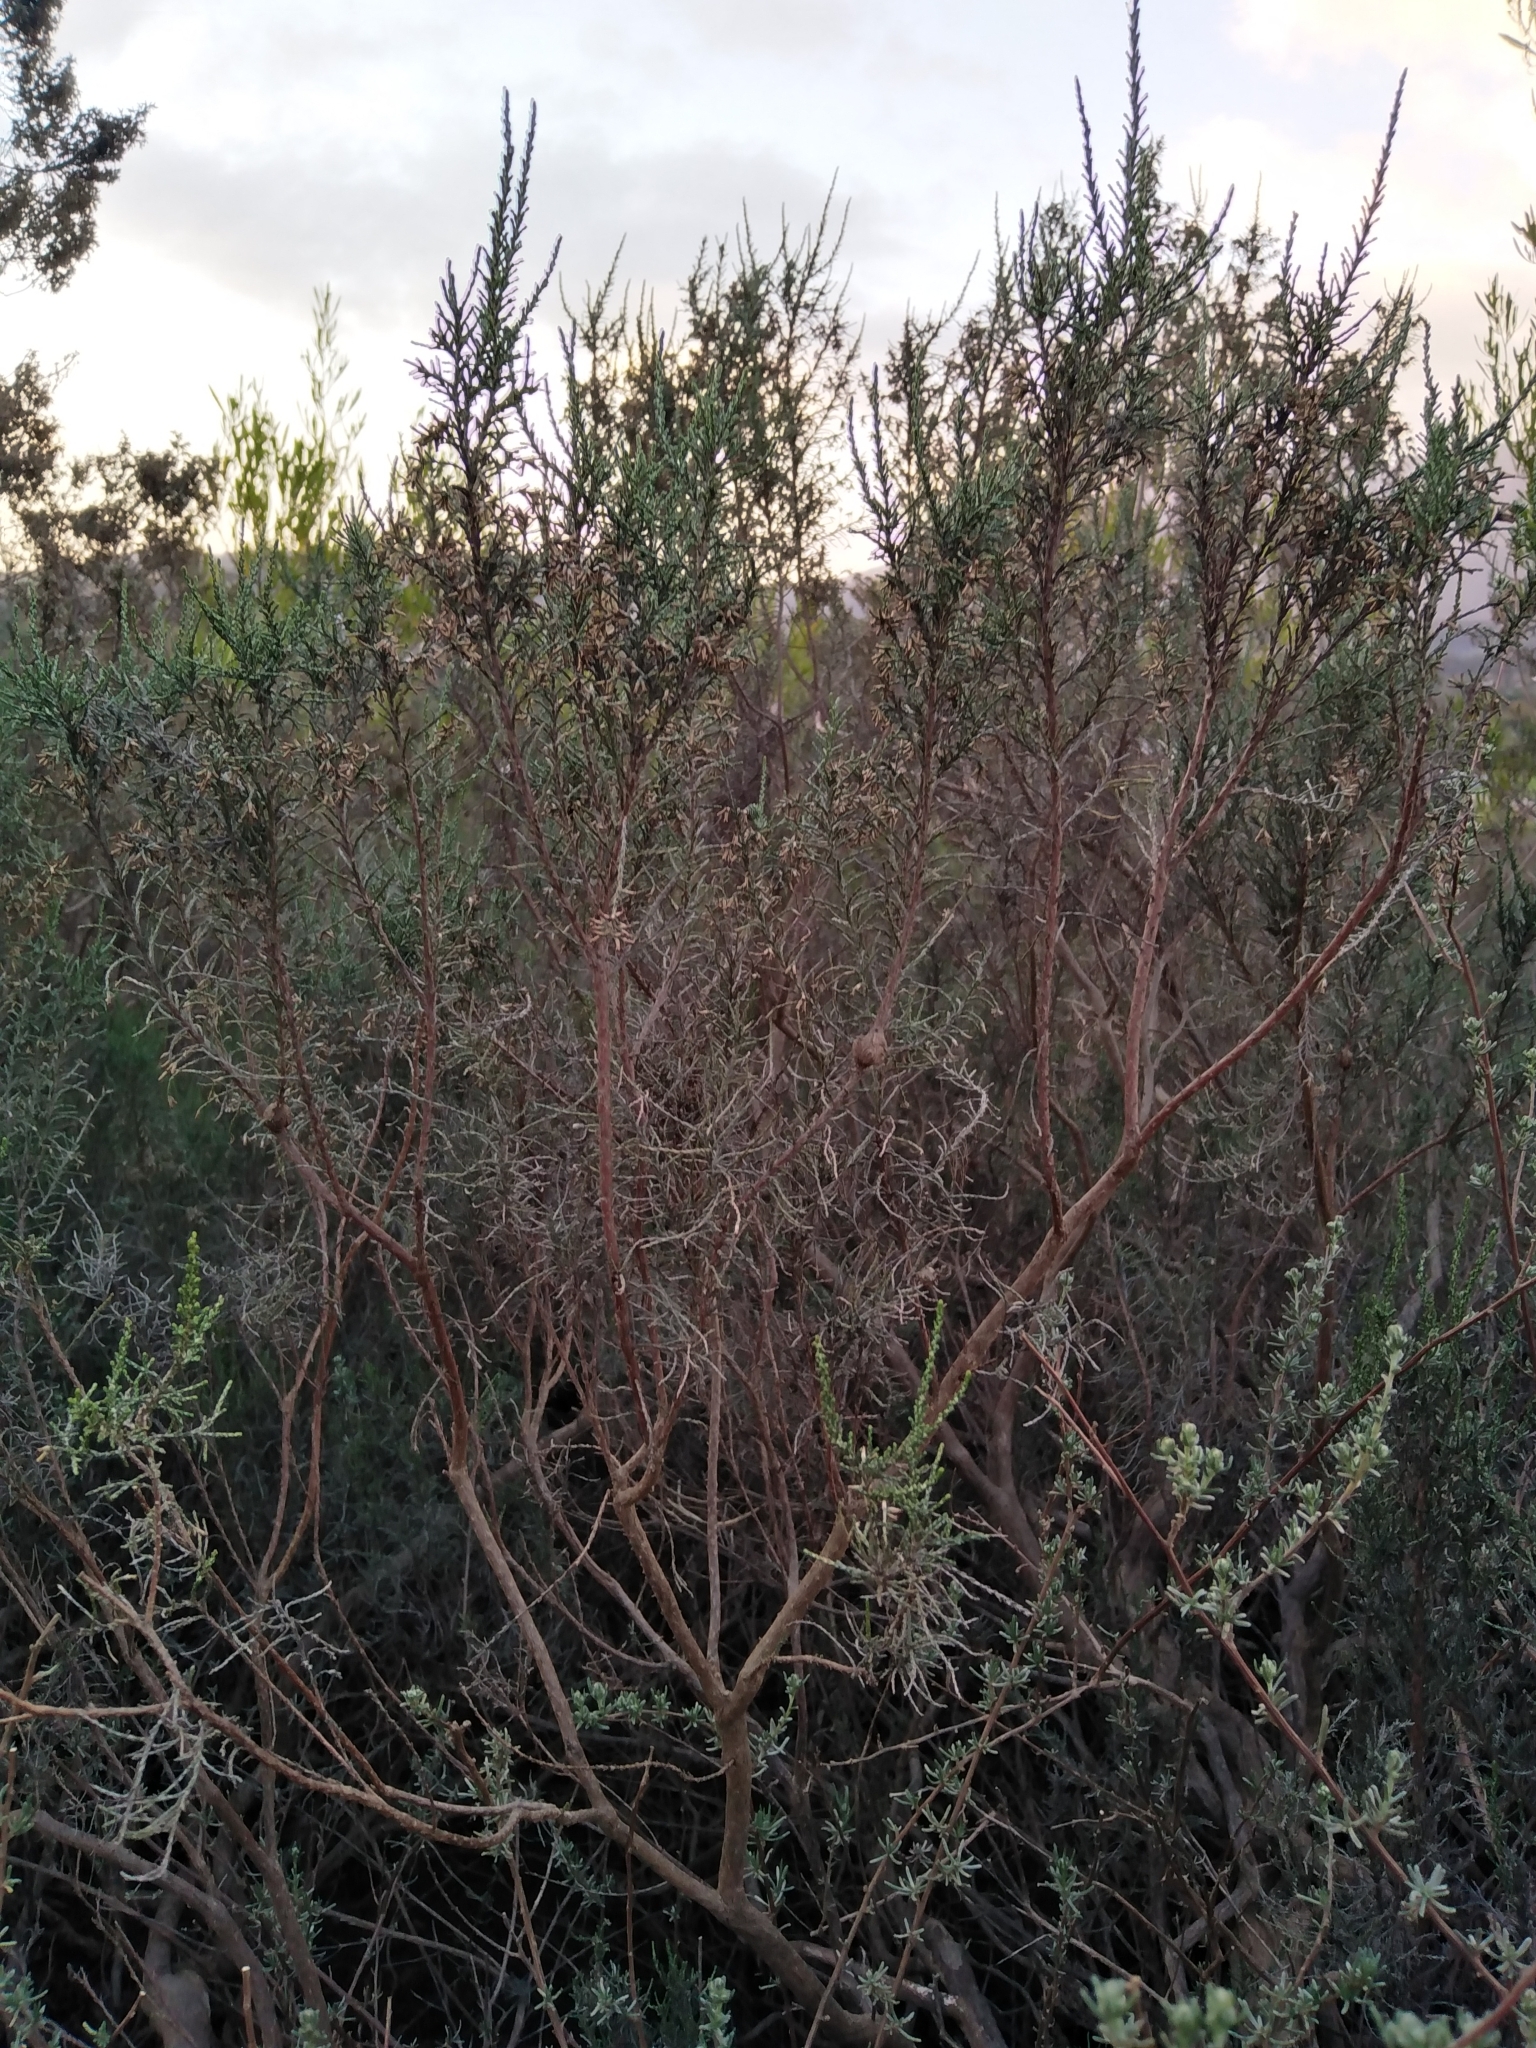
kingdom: Plantae
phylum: Tracheophyta
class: Magnoliopsida
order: Asterales
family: Asteraceae
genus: Dicerothamnus
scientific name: Dicerothamnus rhinocerotis
